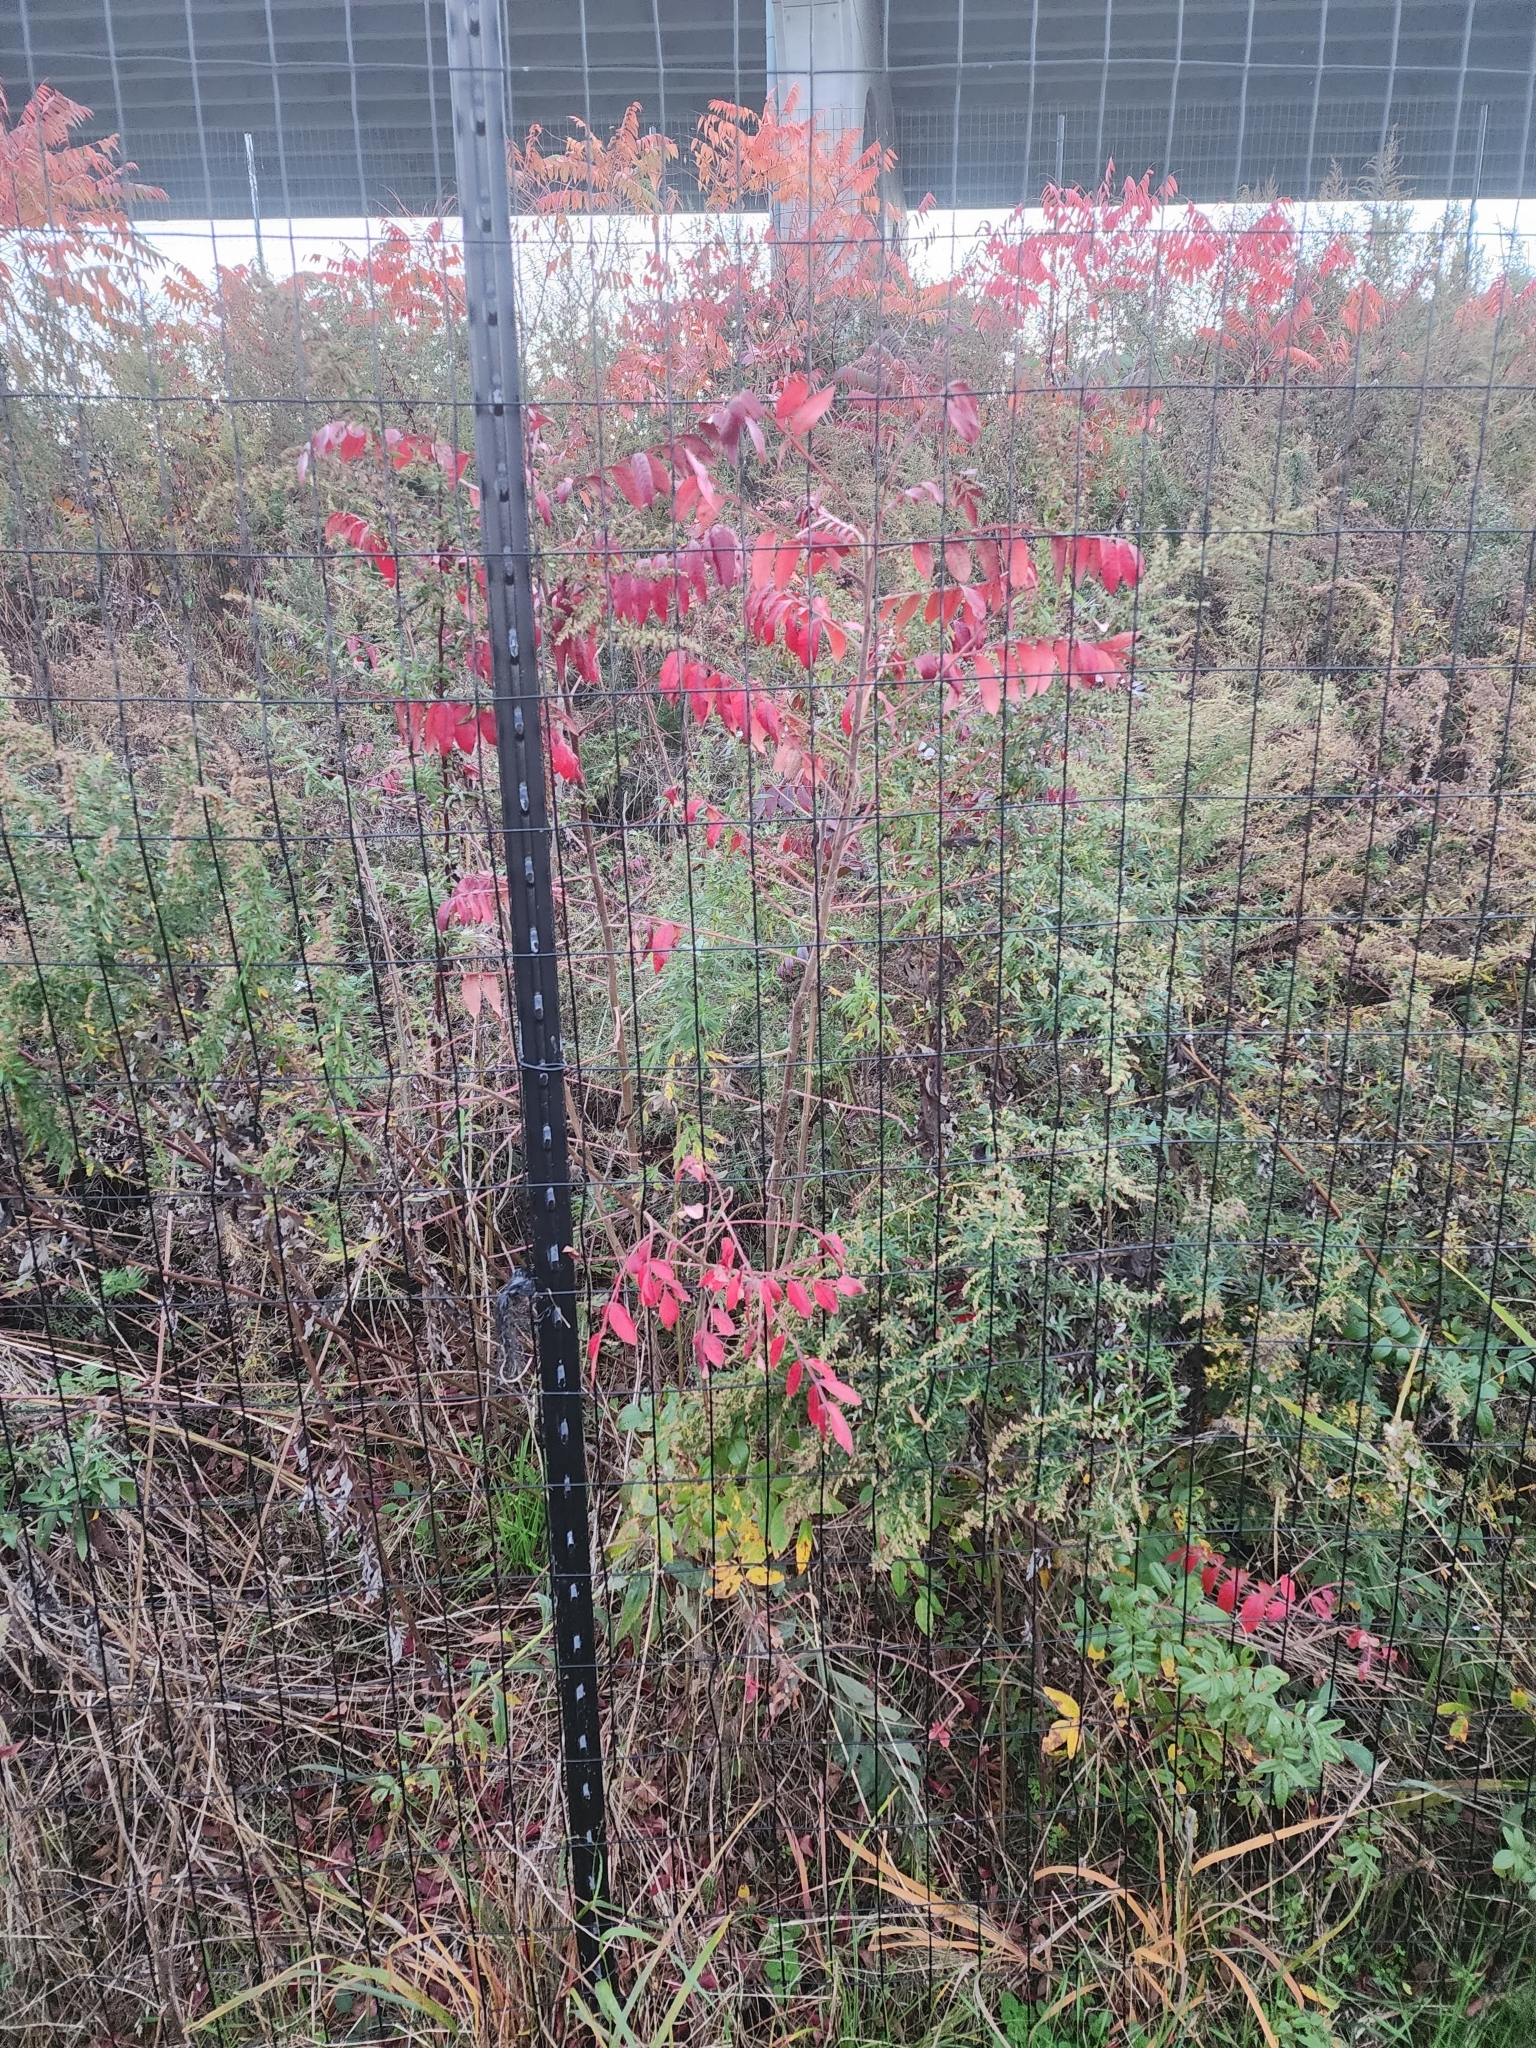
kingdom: Plantae
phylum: Tracheophyta
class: Magnoliopsida
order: Sapindales
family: Anacardiaceae
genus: Rhus
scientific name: Rhus copallina
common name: Shining sumac
